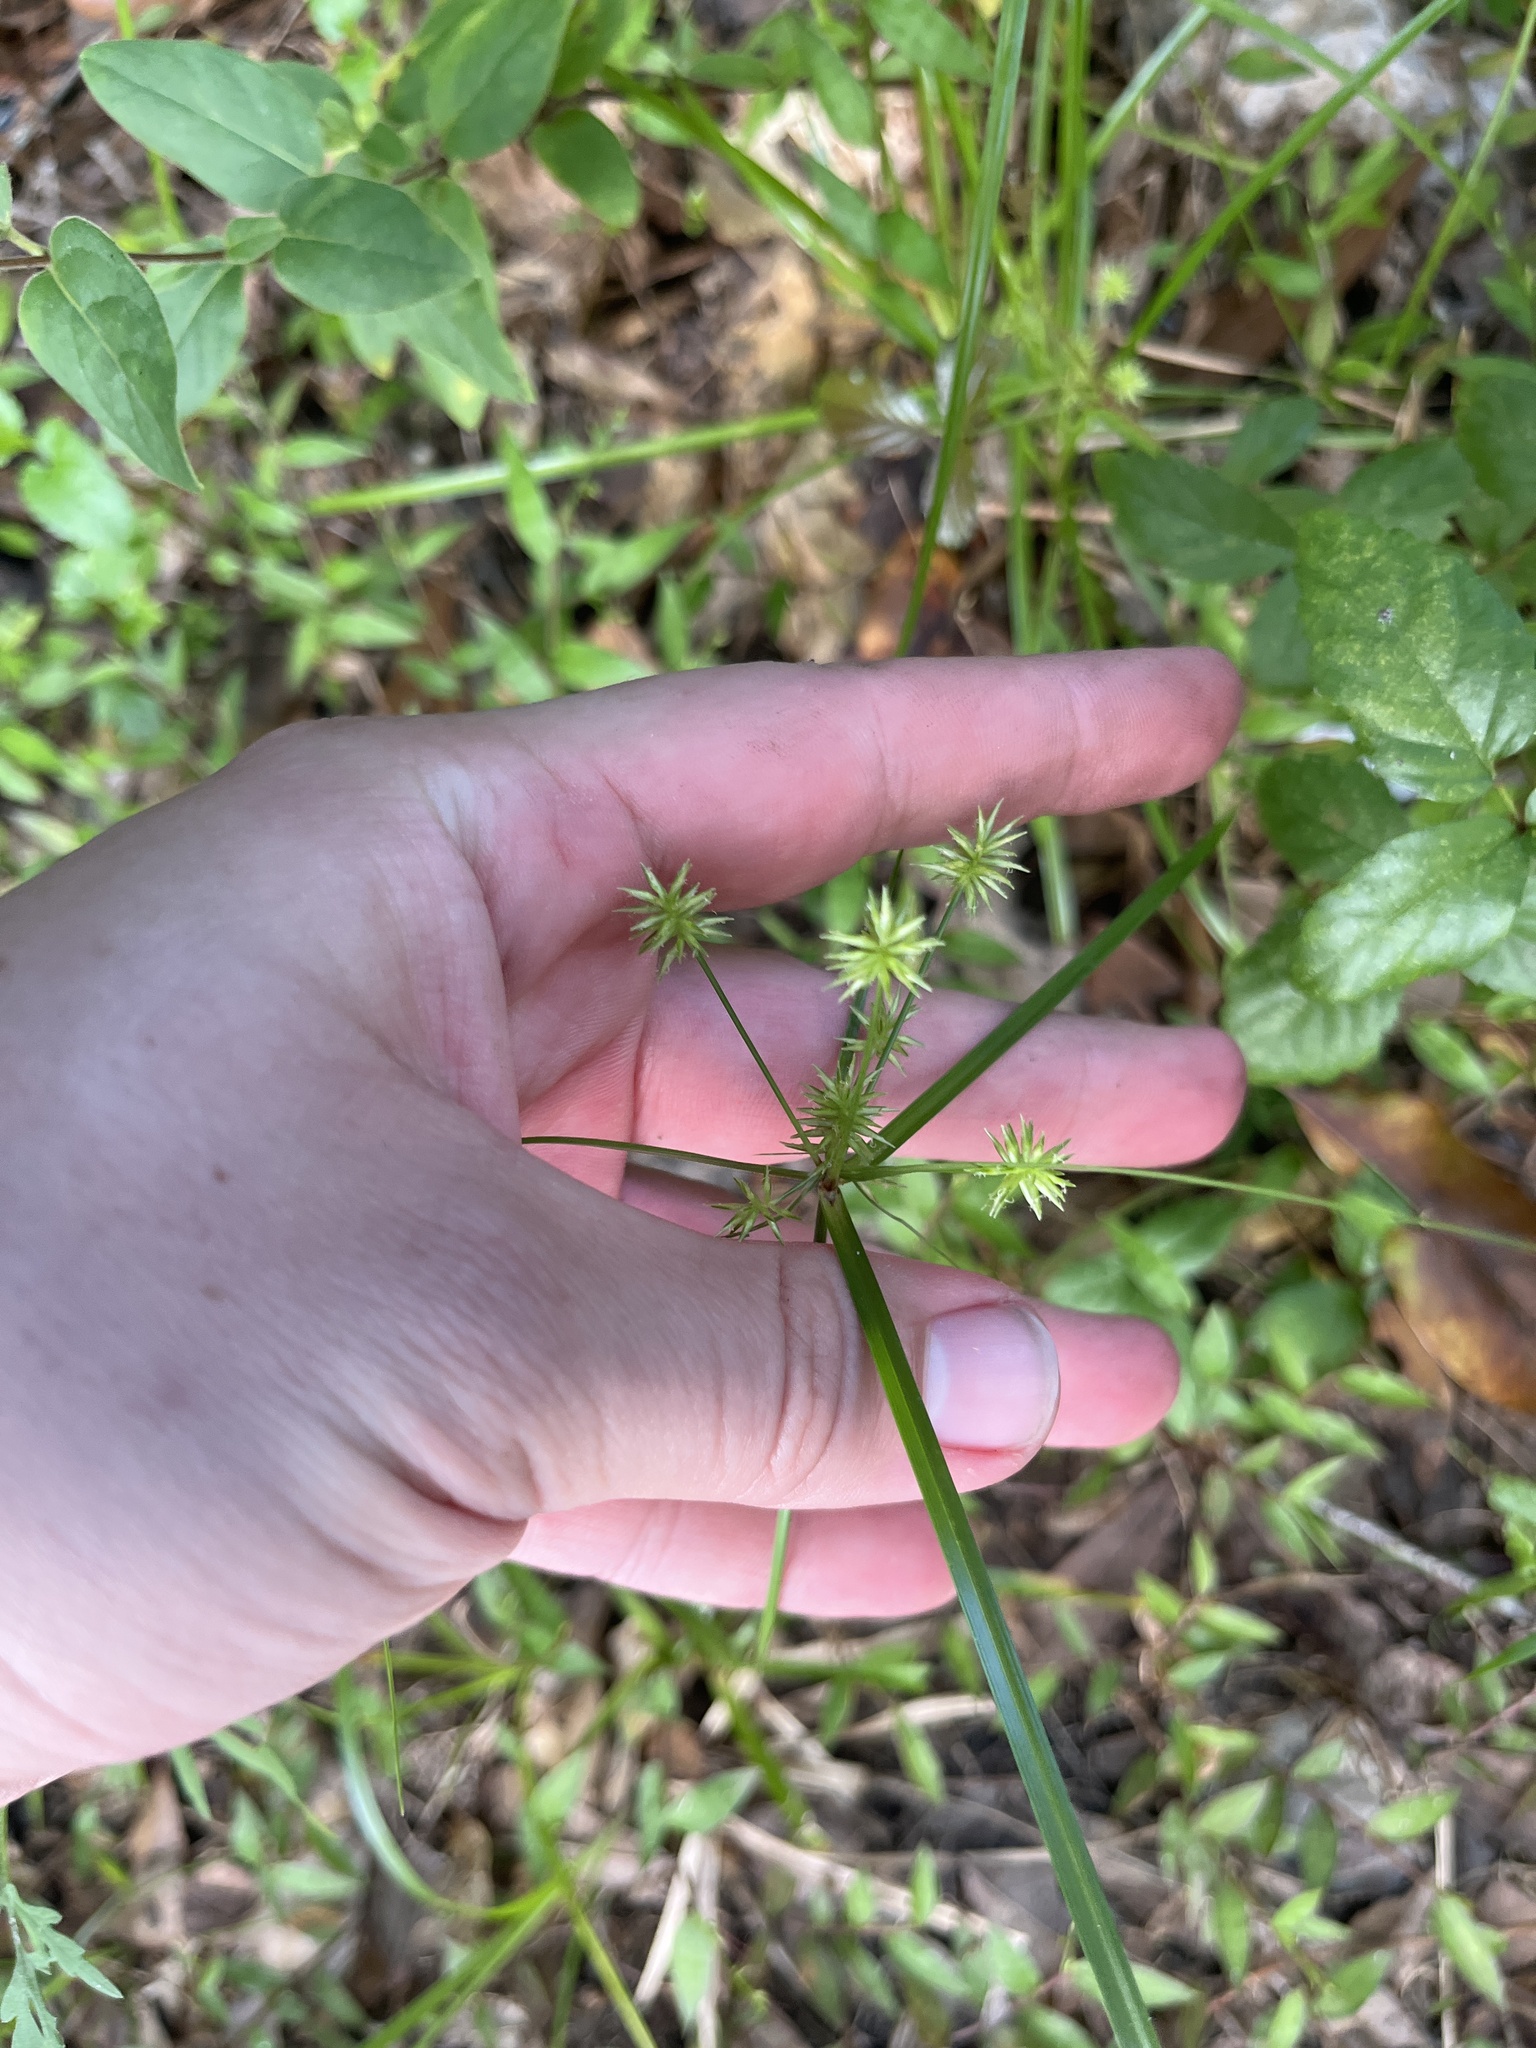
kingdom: Plantae
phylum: Tracheophyta
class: Liliopsida
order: Poales
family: Cyperaceae
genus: Cyperus
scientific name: Cyperus croceus
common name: Baldwin's flatsedge
